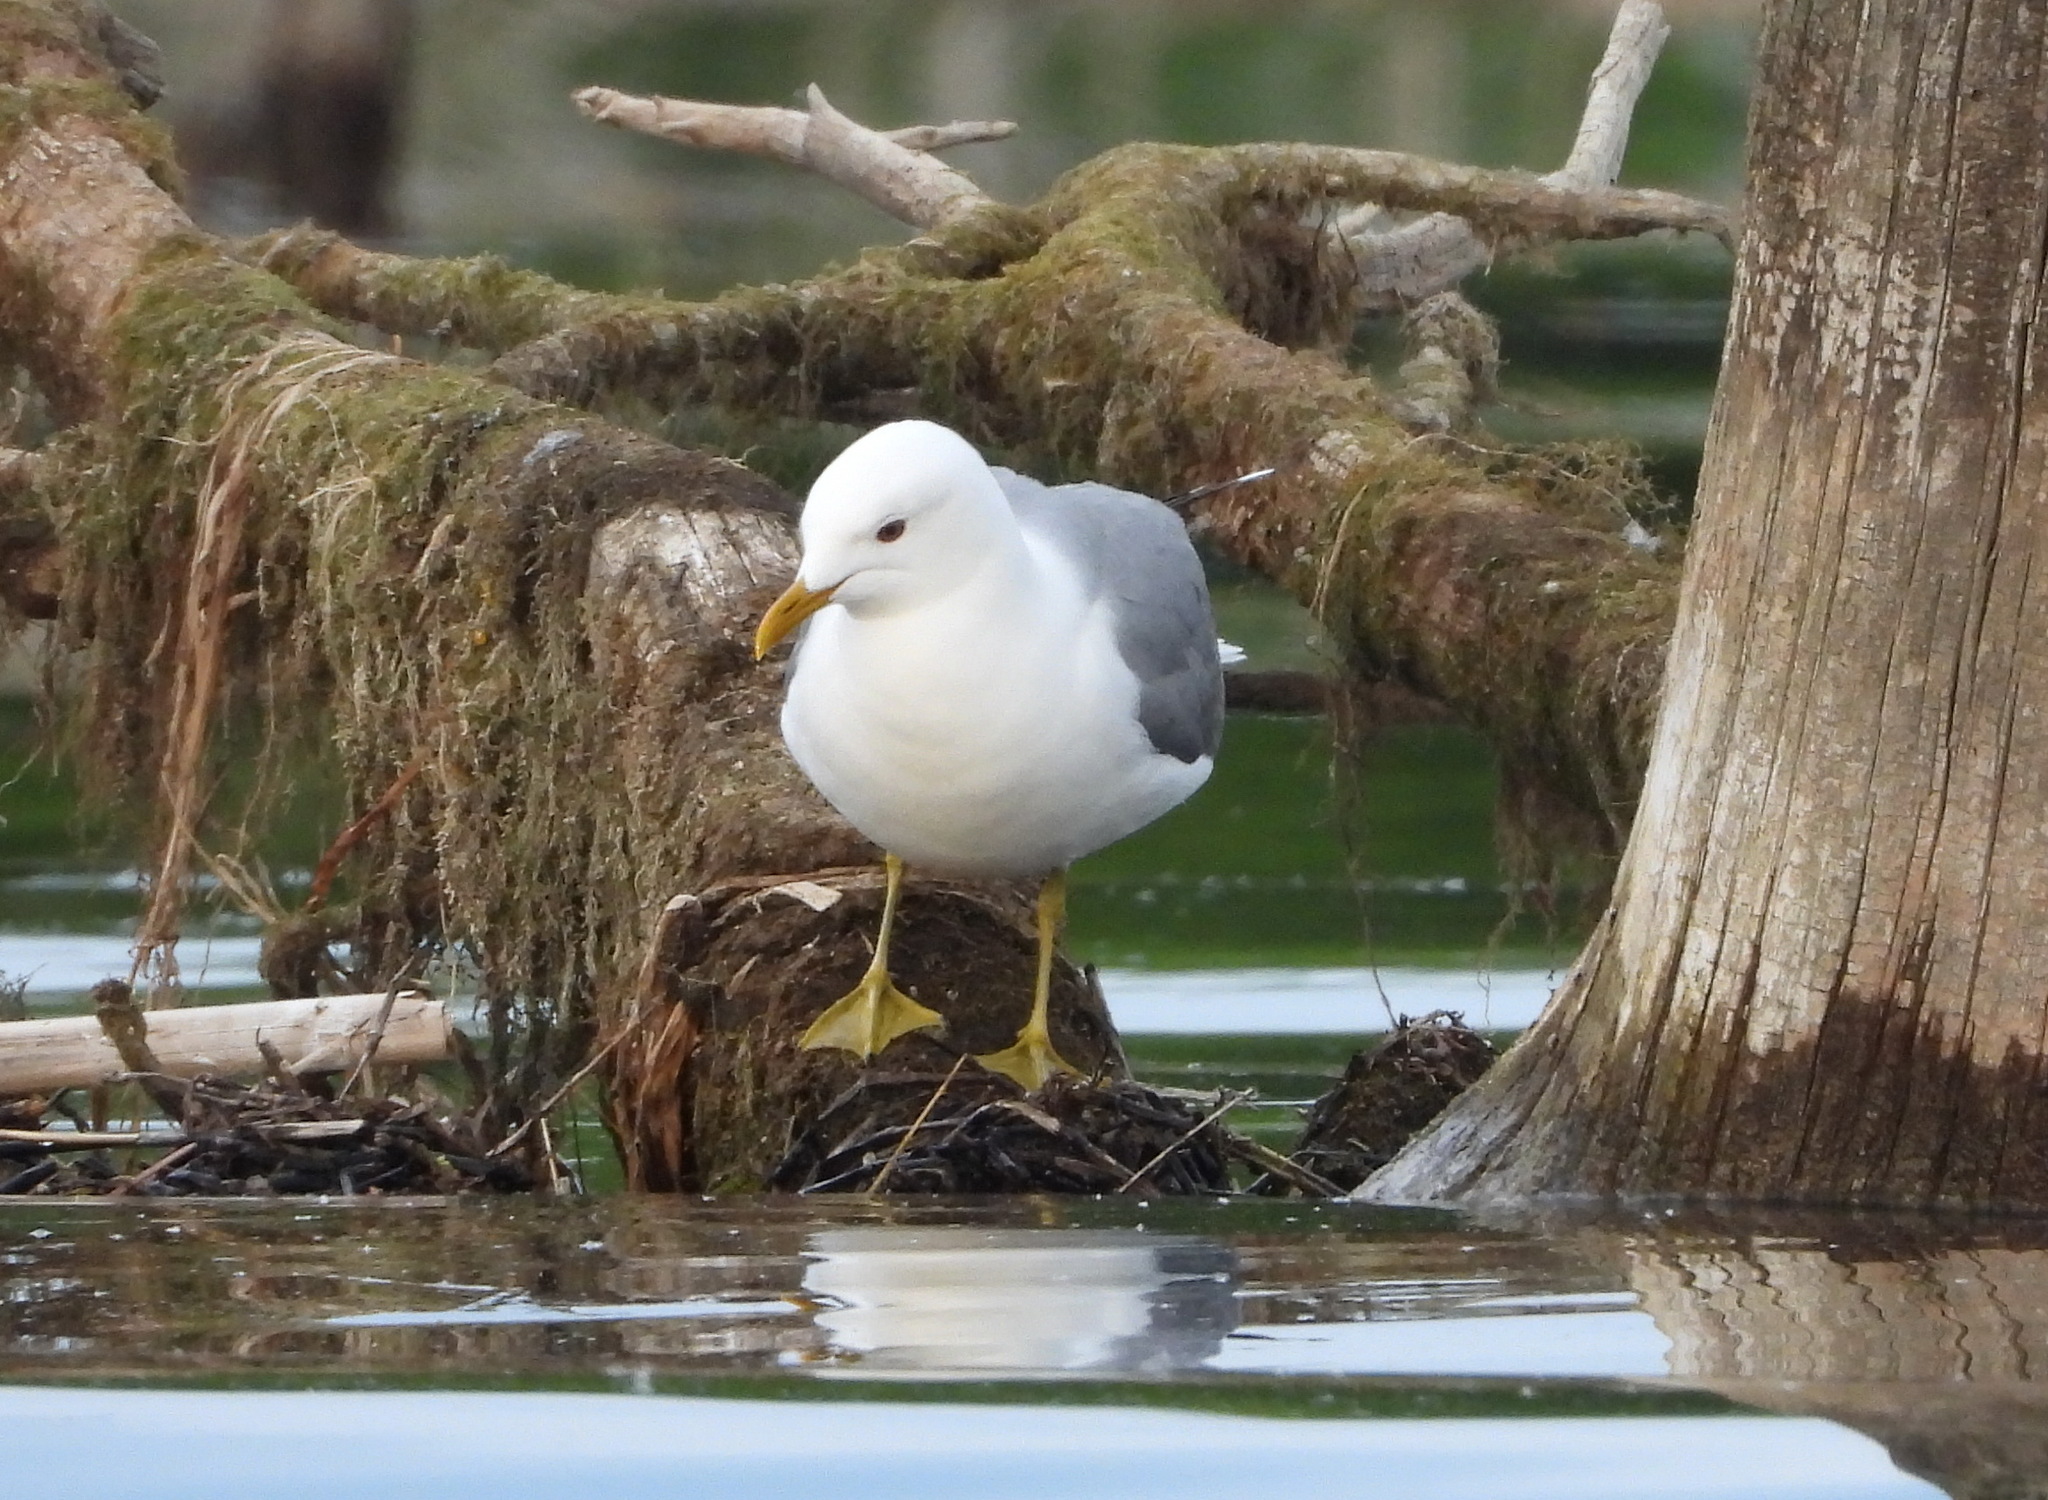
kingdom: Animalia
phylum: Chordata
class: Aves
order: Charadriiformes
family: Laridae
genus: Larus
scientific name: Larus canus
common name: Mew gull
